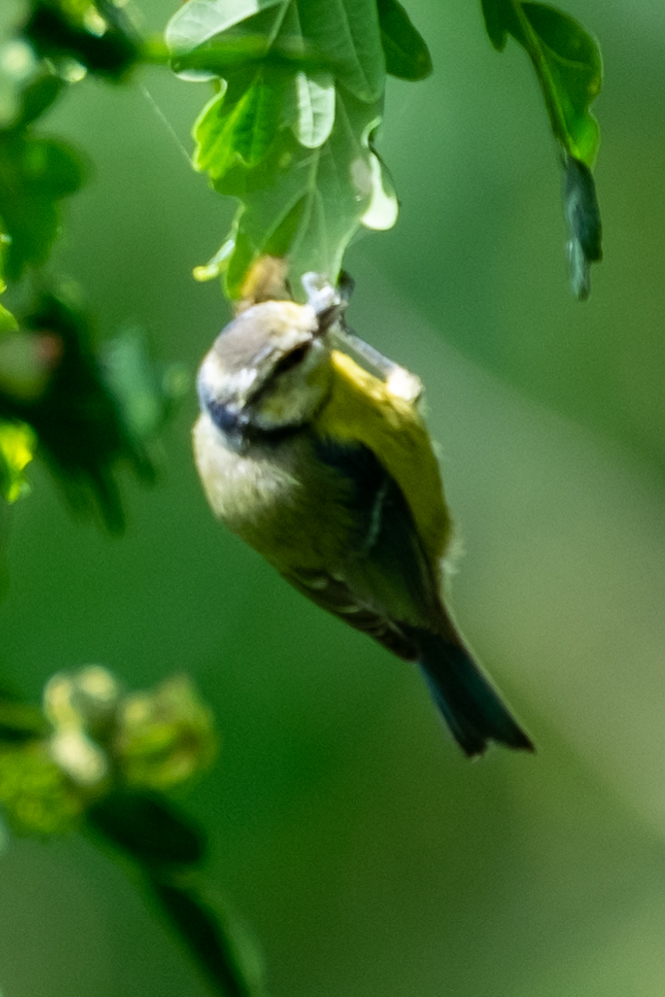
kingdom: Animalia
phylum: Chordata
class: Aves
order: Passeriformes
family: Paridae
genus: Cyanistes
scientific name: Cyanistes caeruleus
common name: Eurasian blue tit
